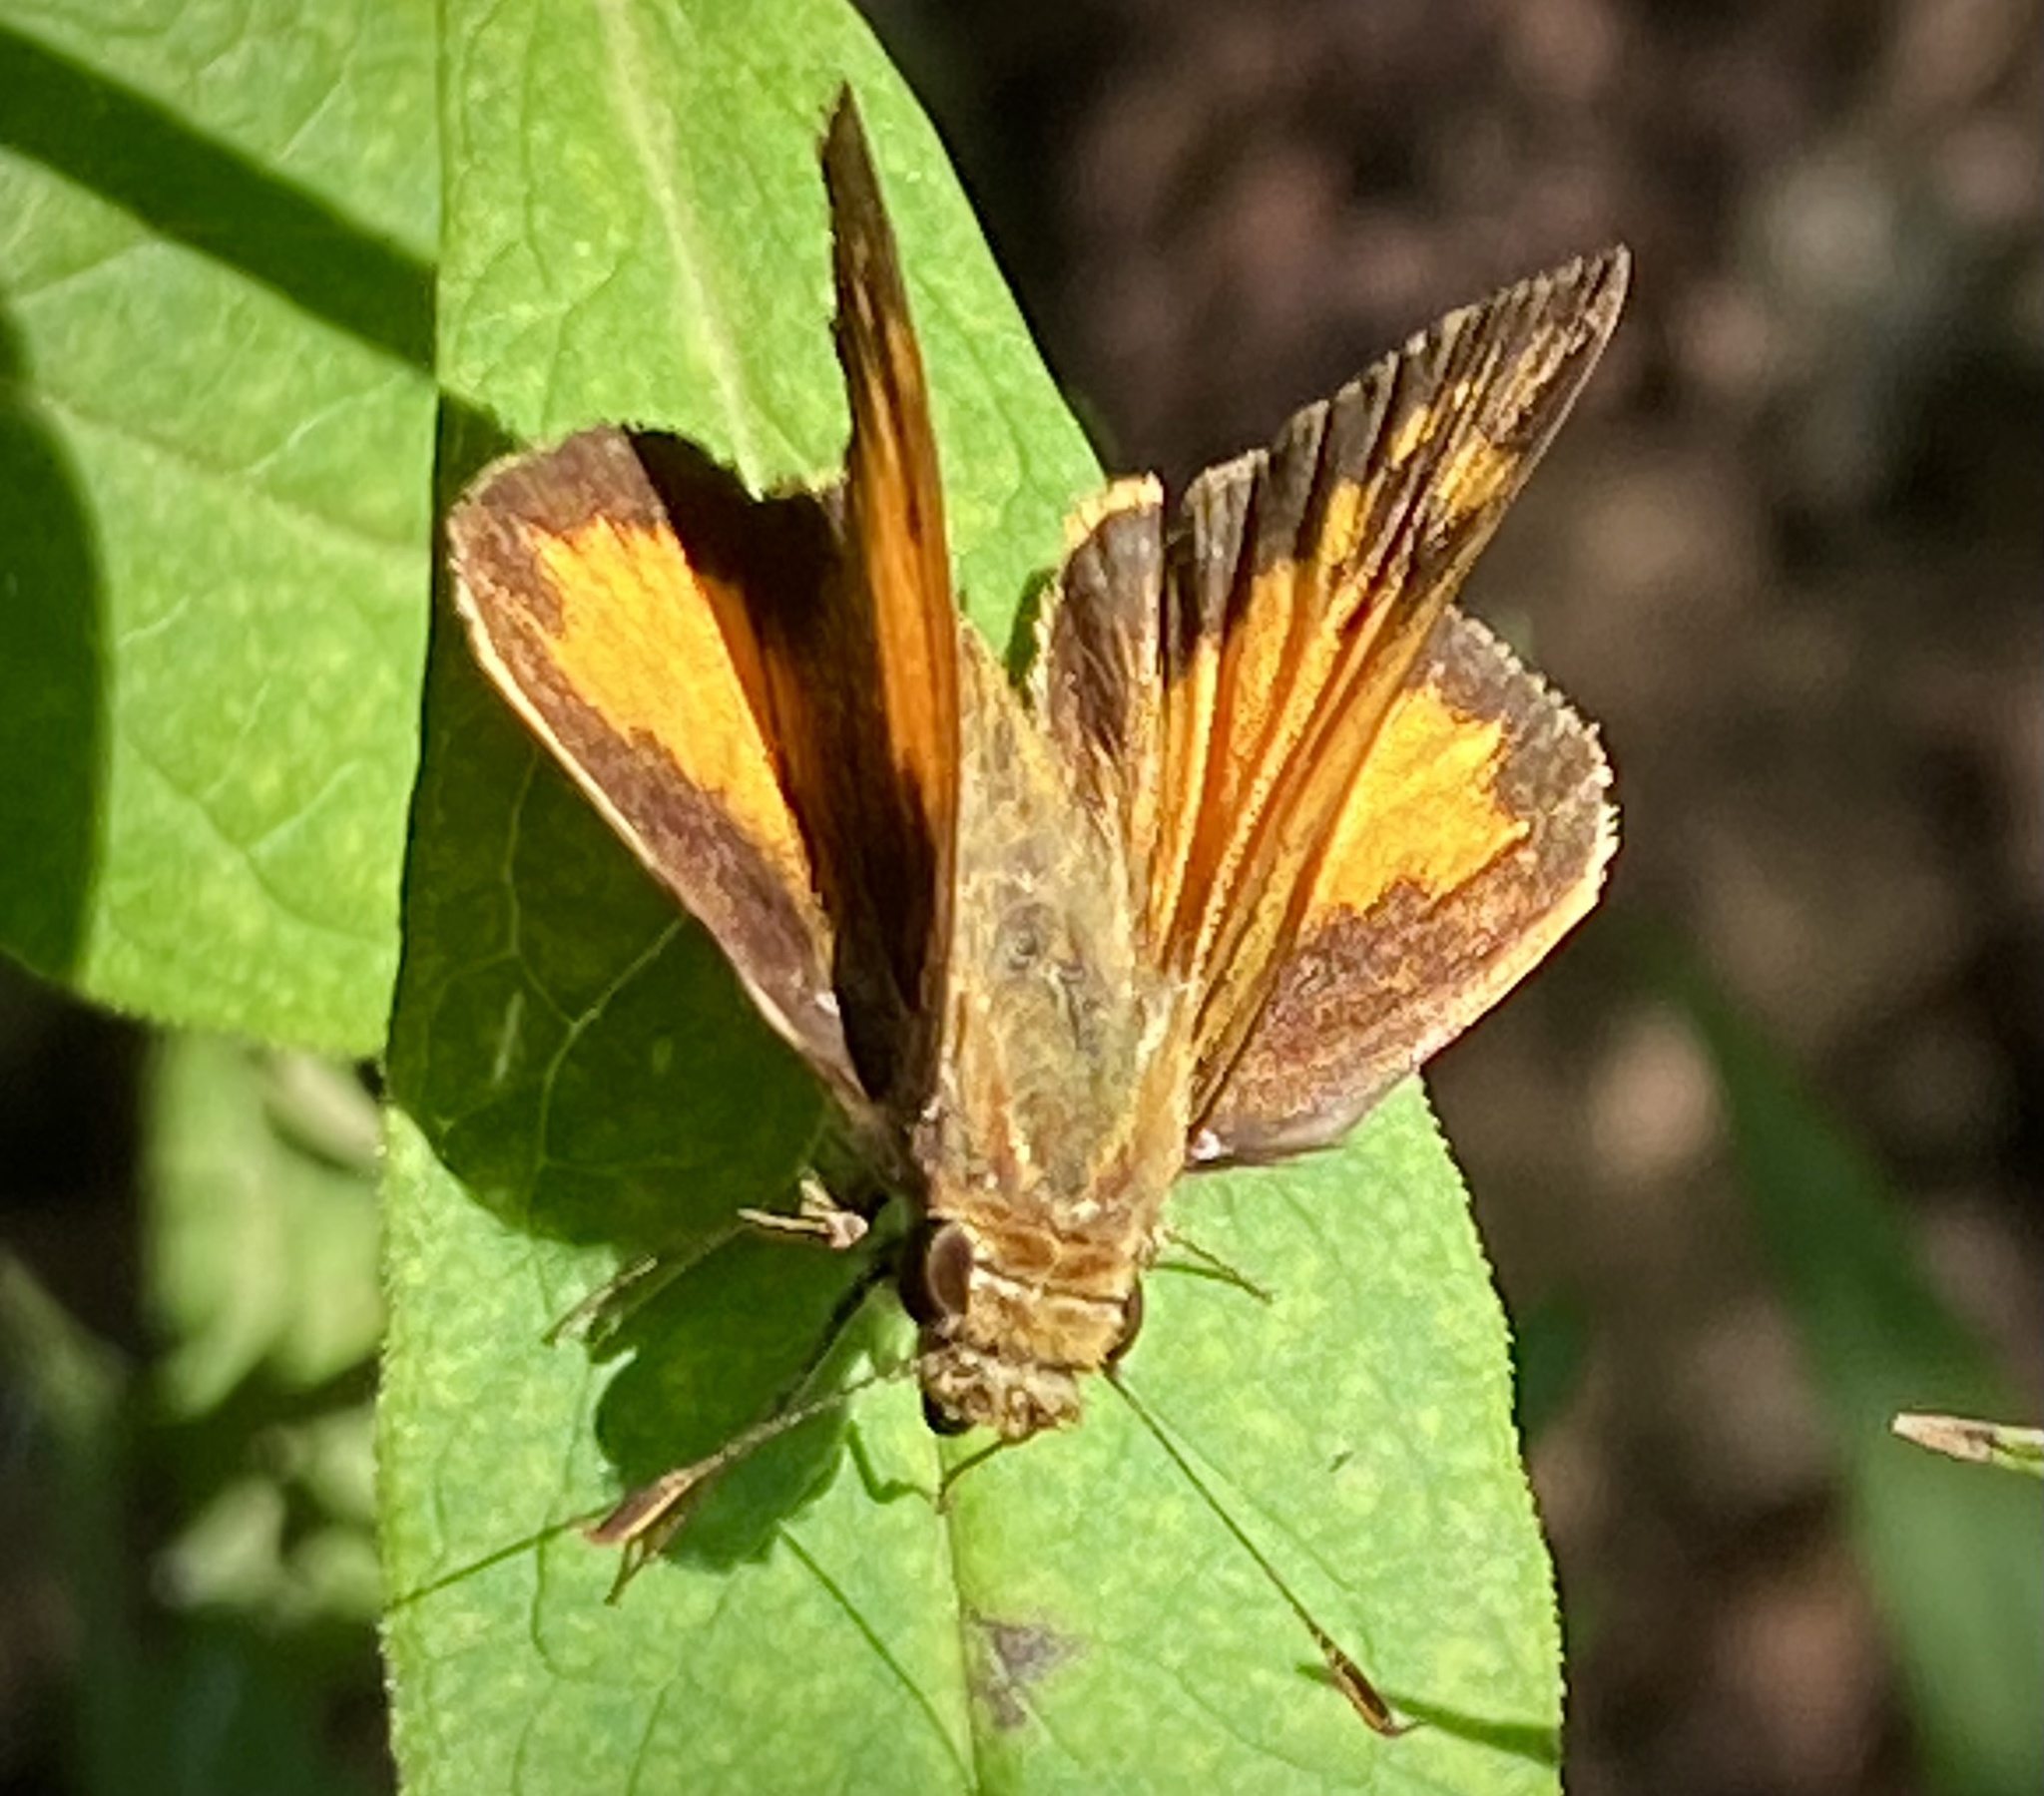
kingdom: Animalia
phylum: Arthropoda
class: Insecta
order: Lepidoptera
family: Hesperiidae
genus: Lon
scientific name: Lon zabulon
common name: Zabulon skipper
